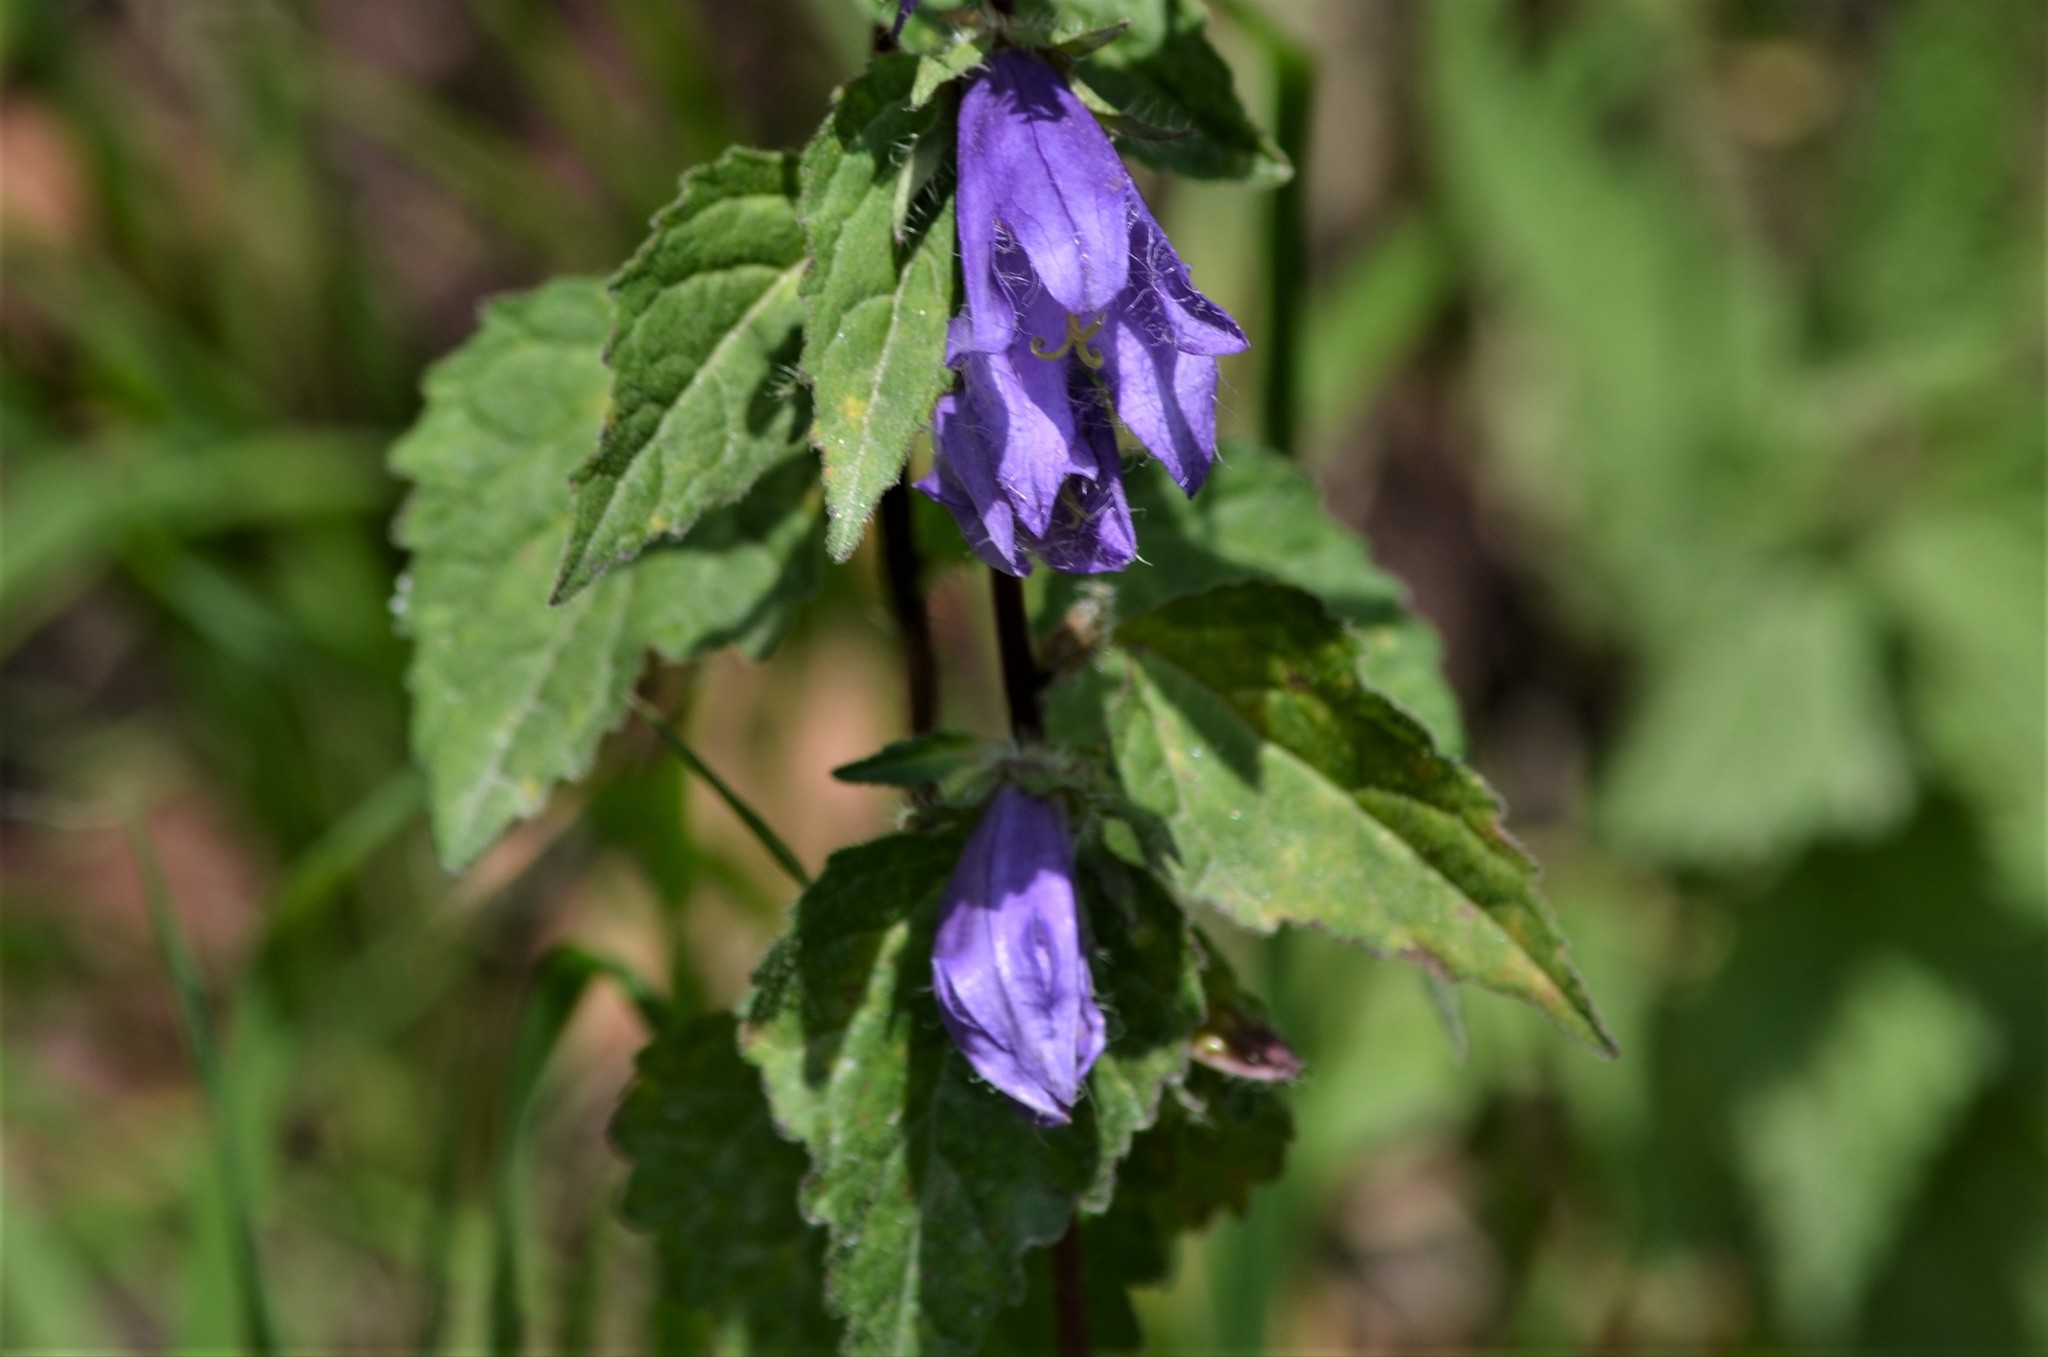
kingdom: Plantae
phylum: Tracheophyta
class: Magnoliopsida
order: Asterales
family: Campanulaceae
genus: Campanula
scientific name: Campanula trachelium
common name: Nettle-leaved bellflower
